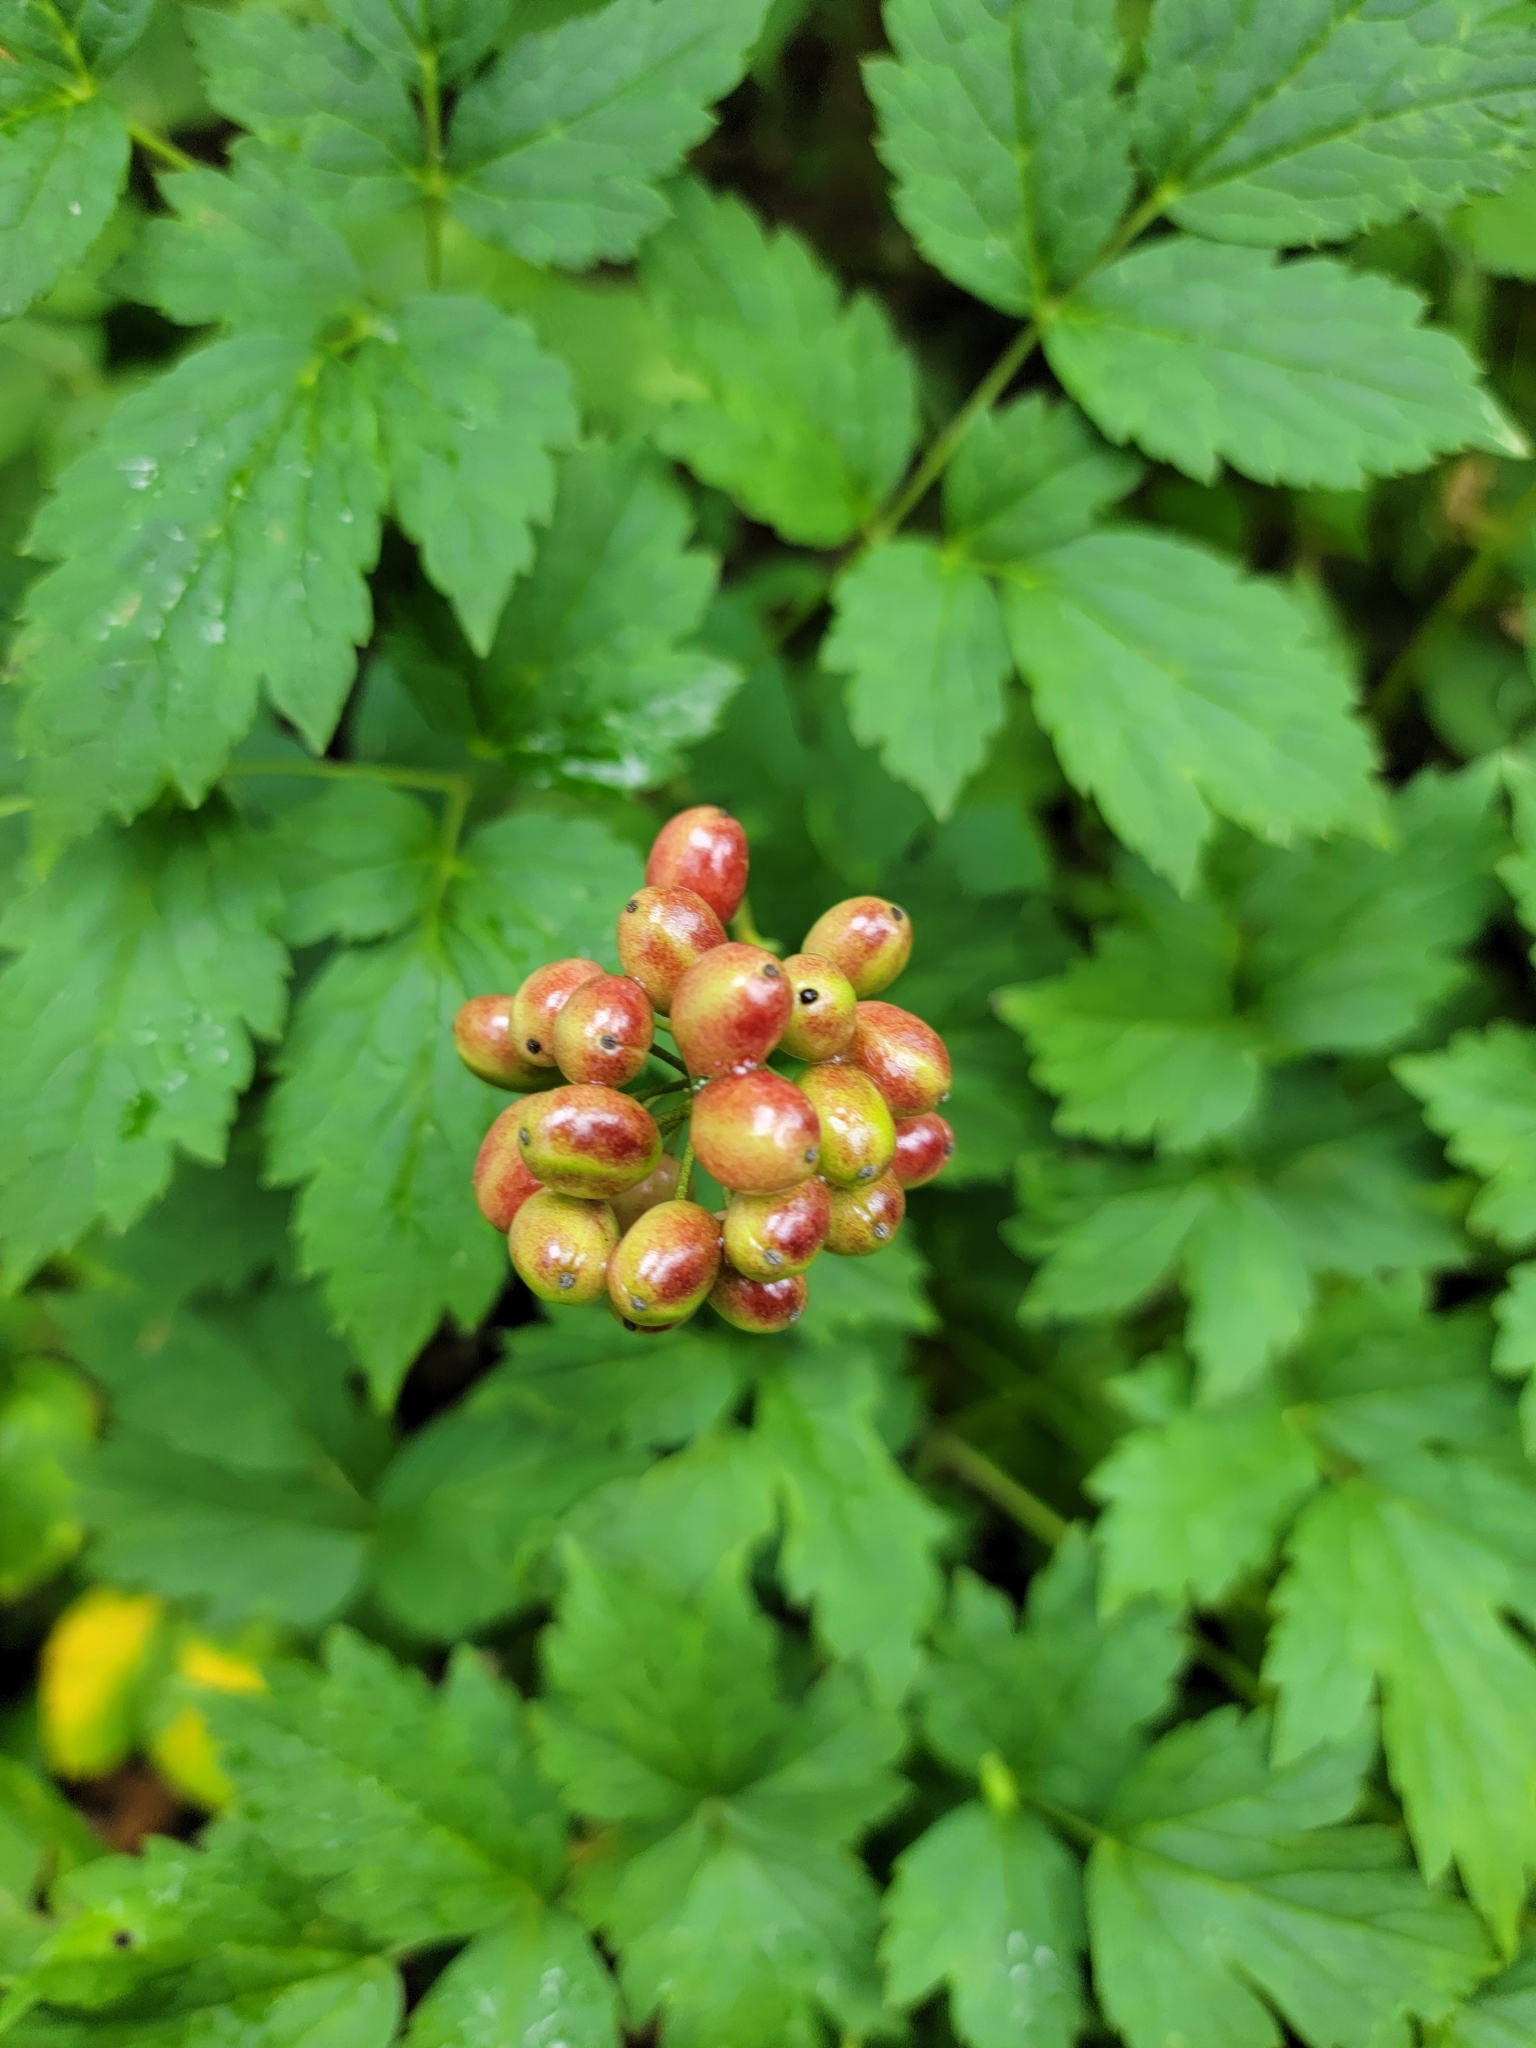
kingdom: Plantae
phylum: Tracheophyta
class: Magnoliopsida
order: Ranunculales
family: Ranunculaceae
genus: Actaea
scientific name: Actaea rubra
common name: Red baneberry
